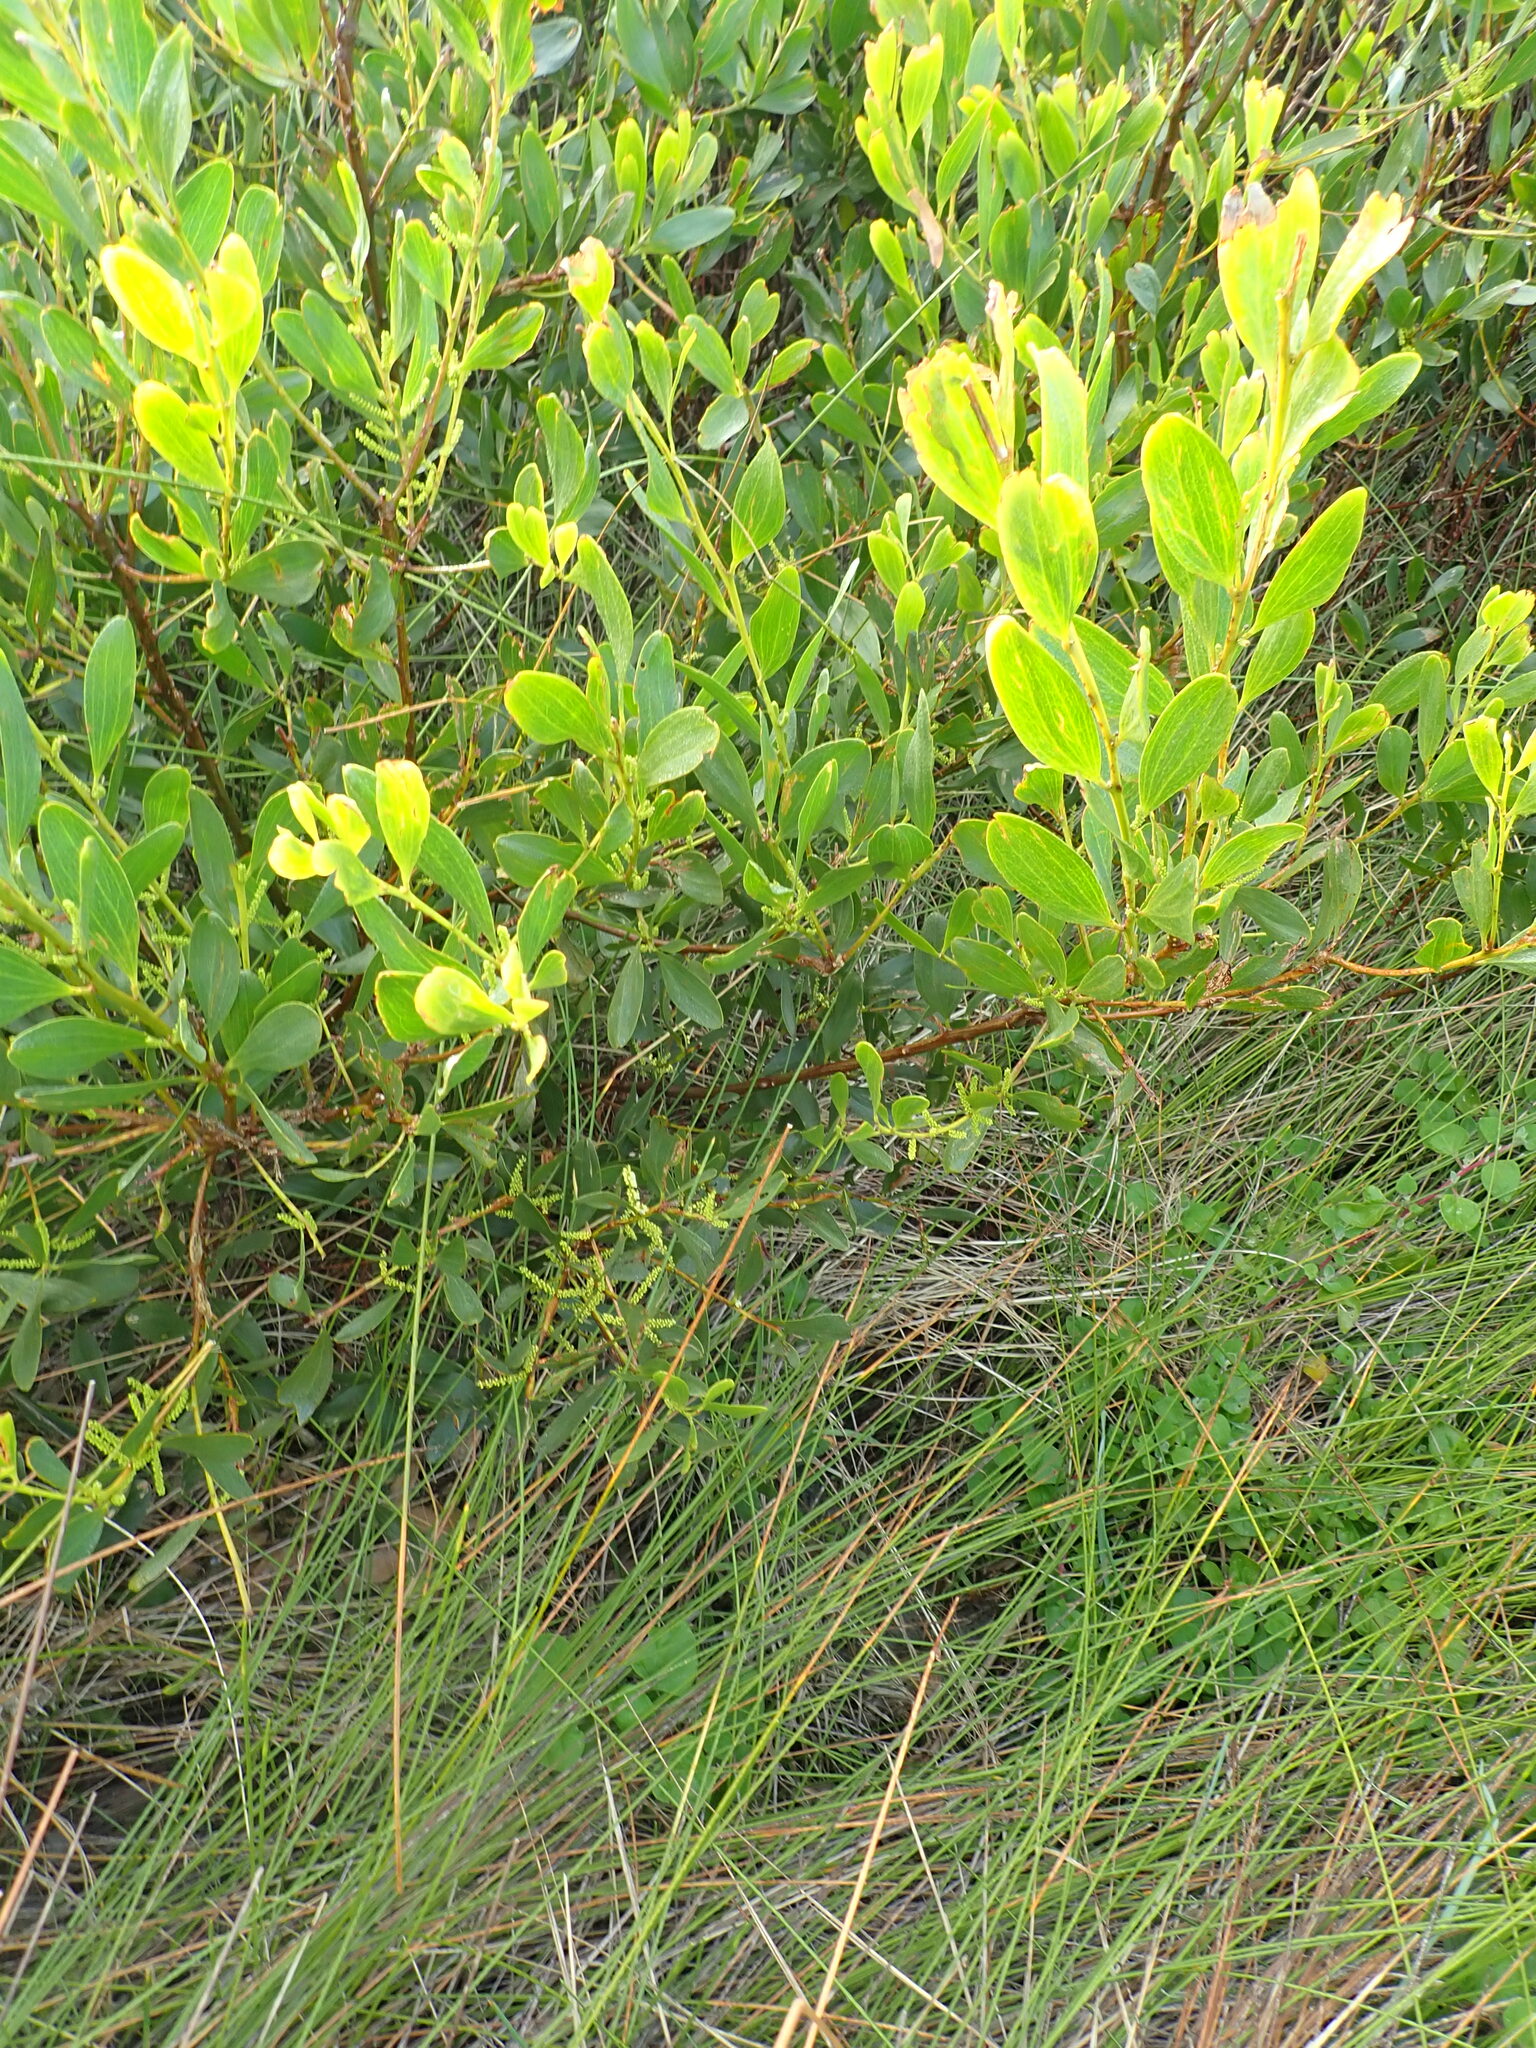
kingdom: Plantae
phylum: Tracheophyta
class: Magnoliopsida
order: Fabales
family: Fabaceae
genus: Acacia
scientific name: Acacia longifolia
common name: Sydney golden wattle
